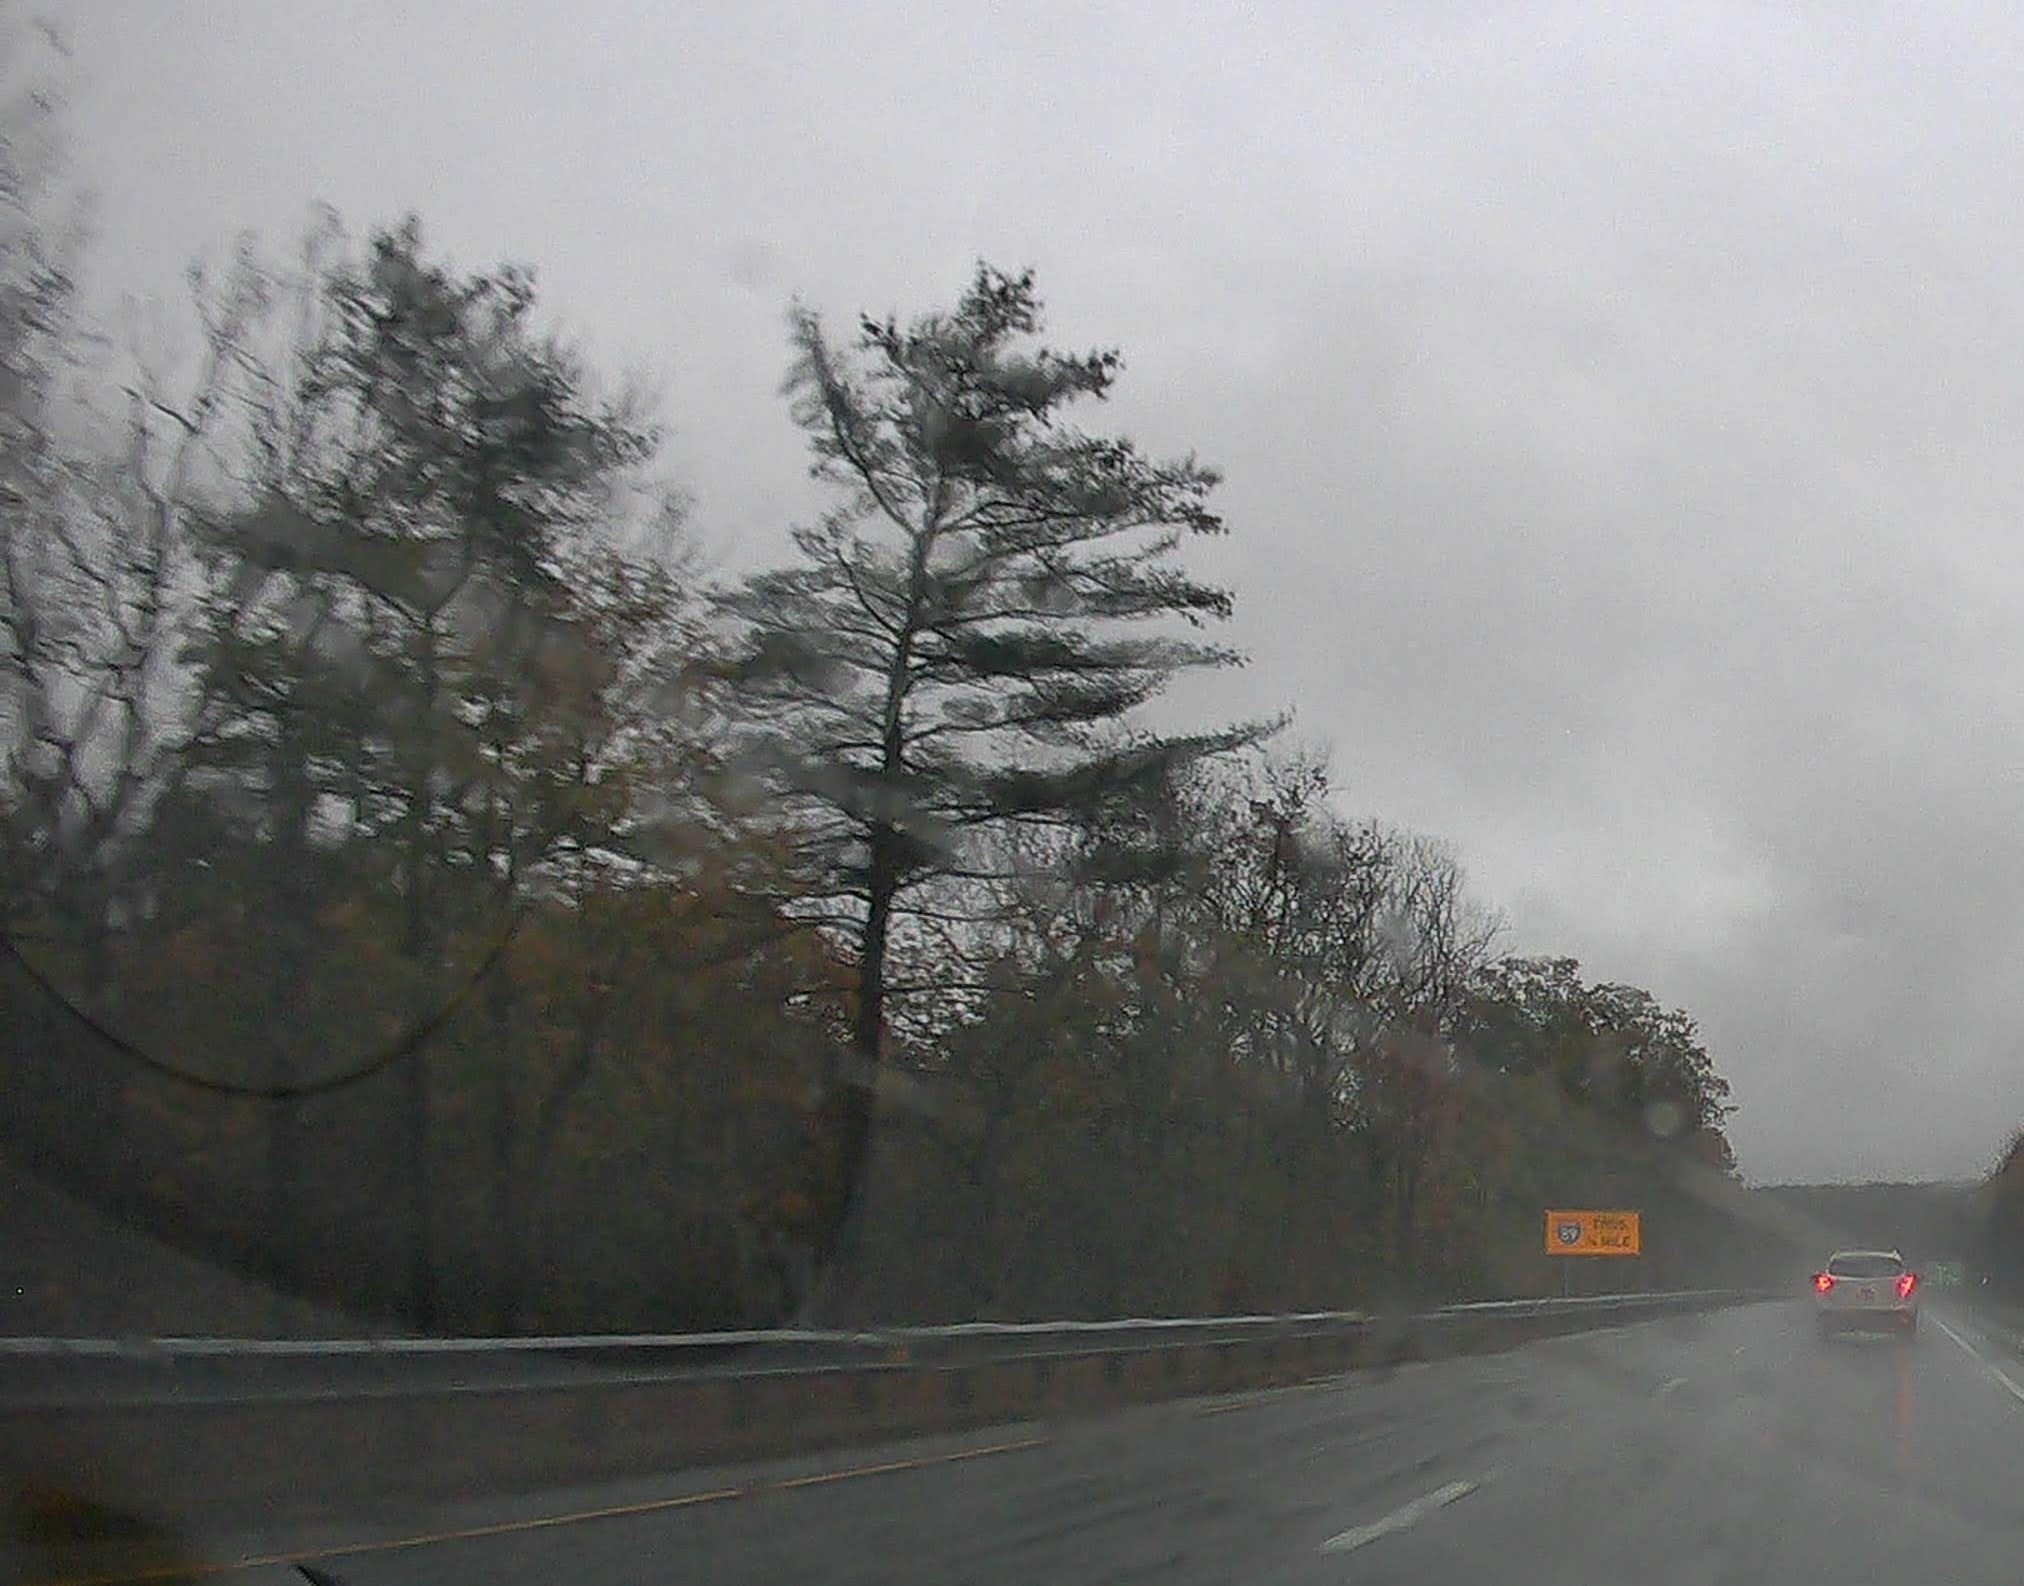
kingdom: Plantae
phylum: Tracheophyta
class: Pinopsida
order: Pinales
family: Pinaceae
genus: Pinus
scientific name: Pinus strobus
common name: Weymouth pine
